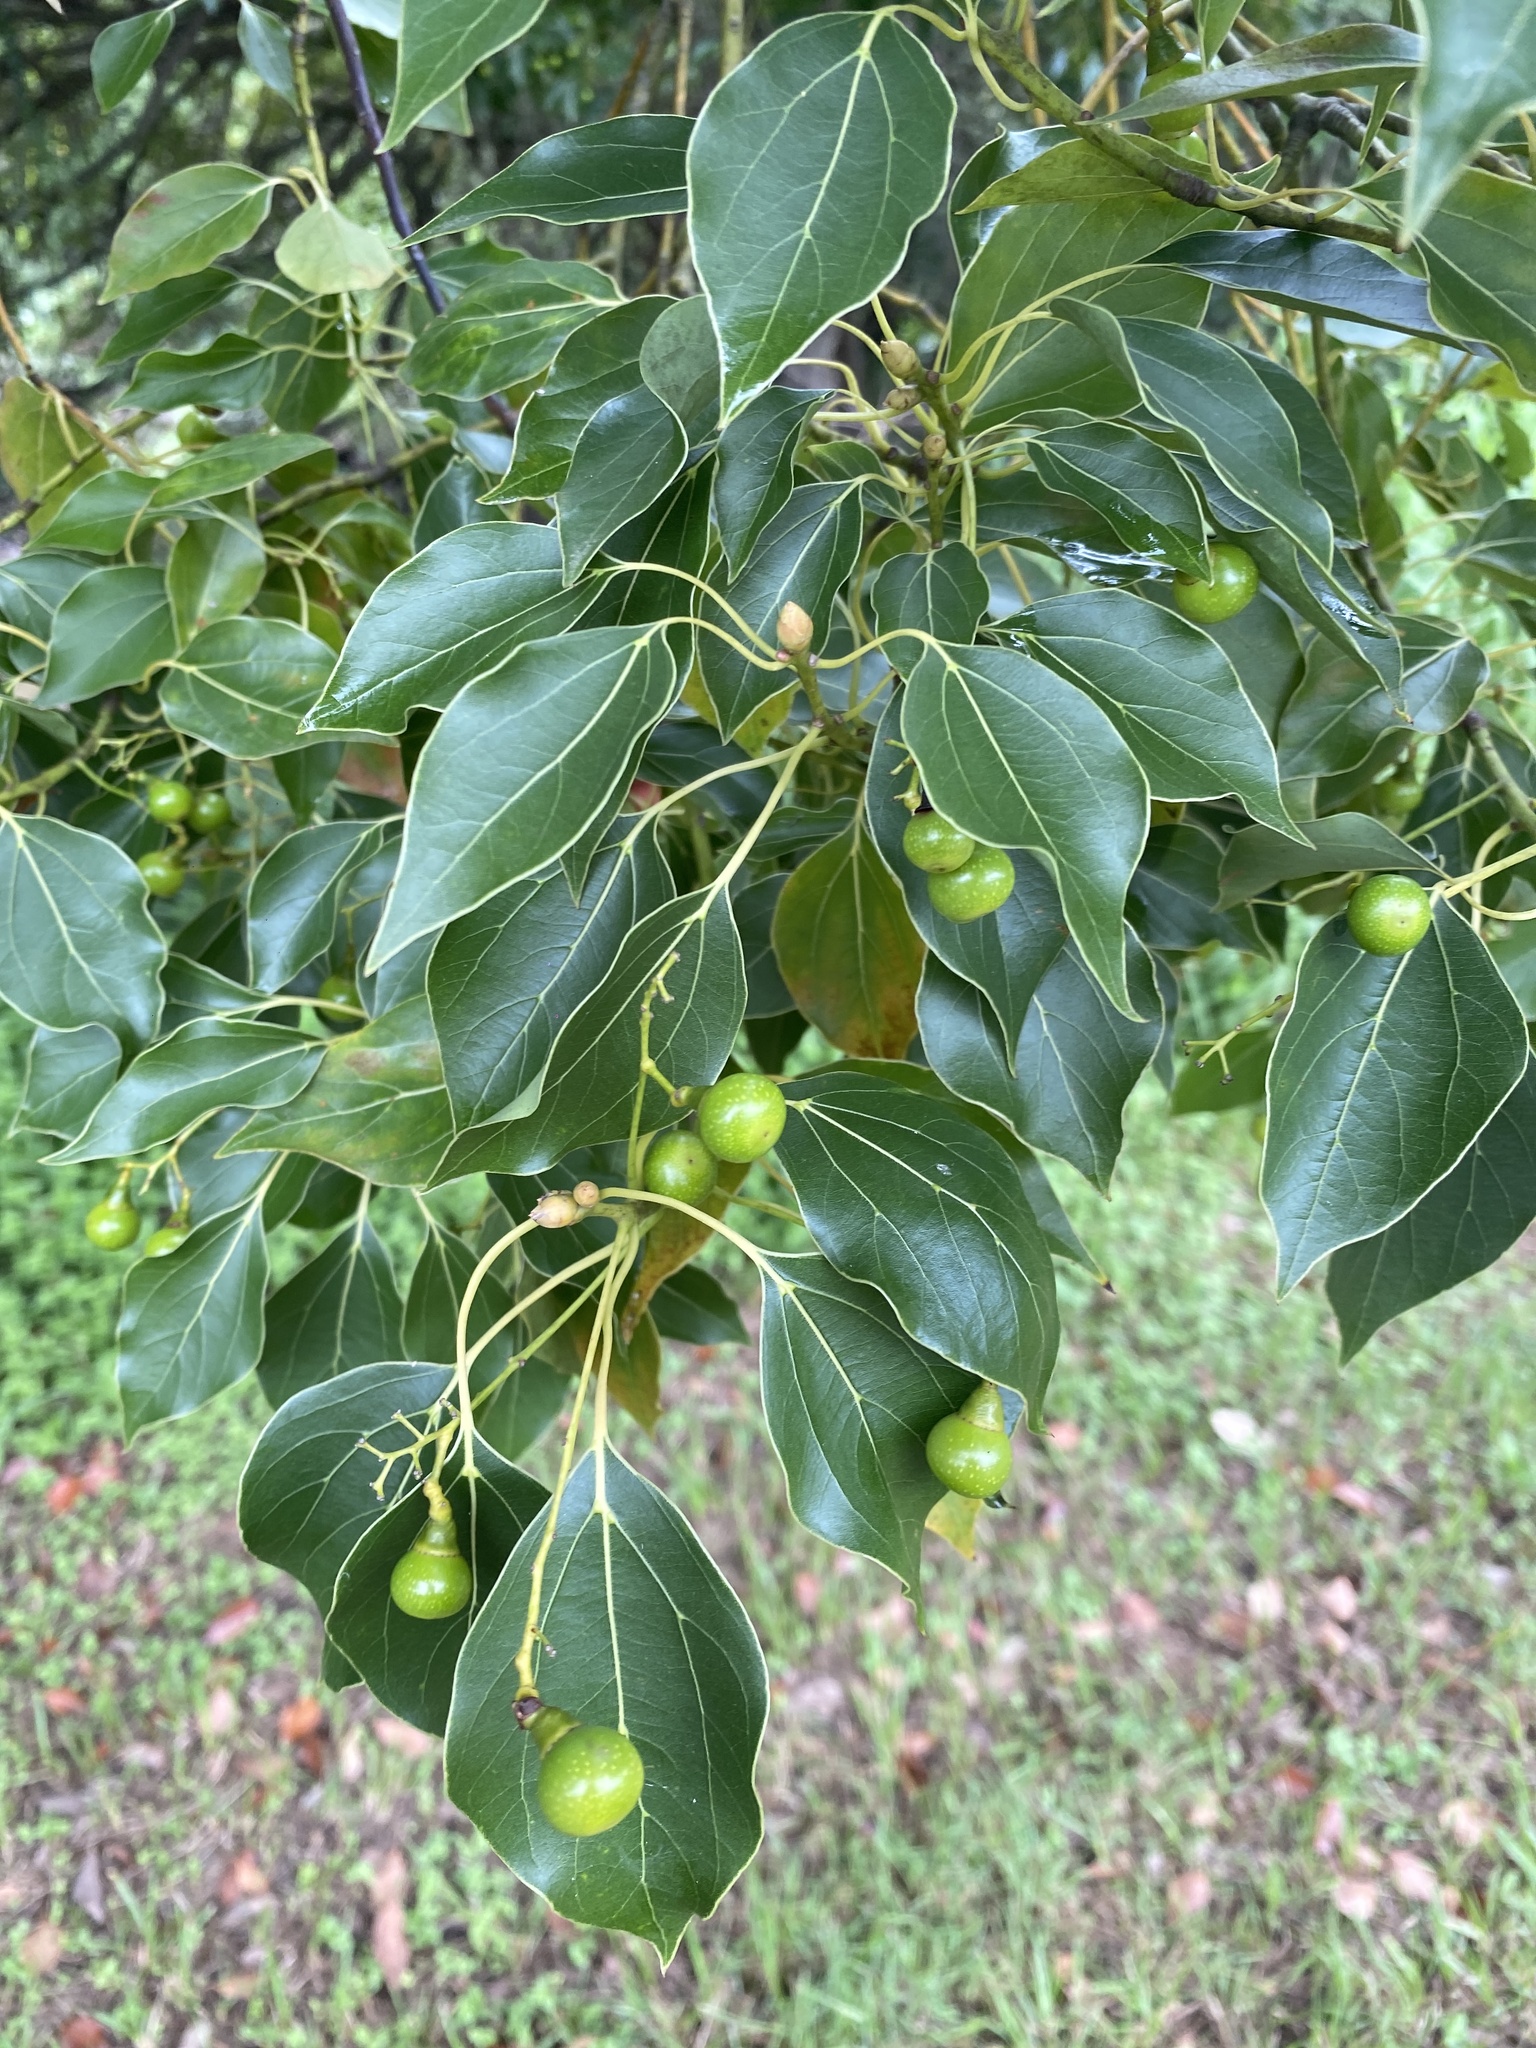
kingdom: Plantae
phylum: Tracheophyta
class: Magnoliopsida
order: Laurales
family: Lauraceae
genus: Cinnamomum
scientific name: Cinnamomum camphora
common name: Camphortree
